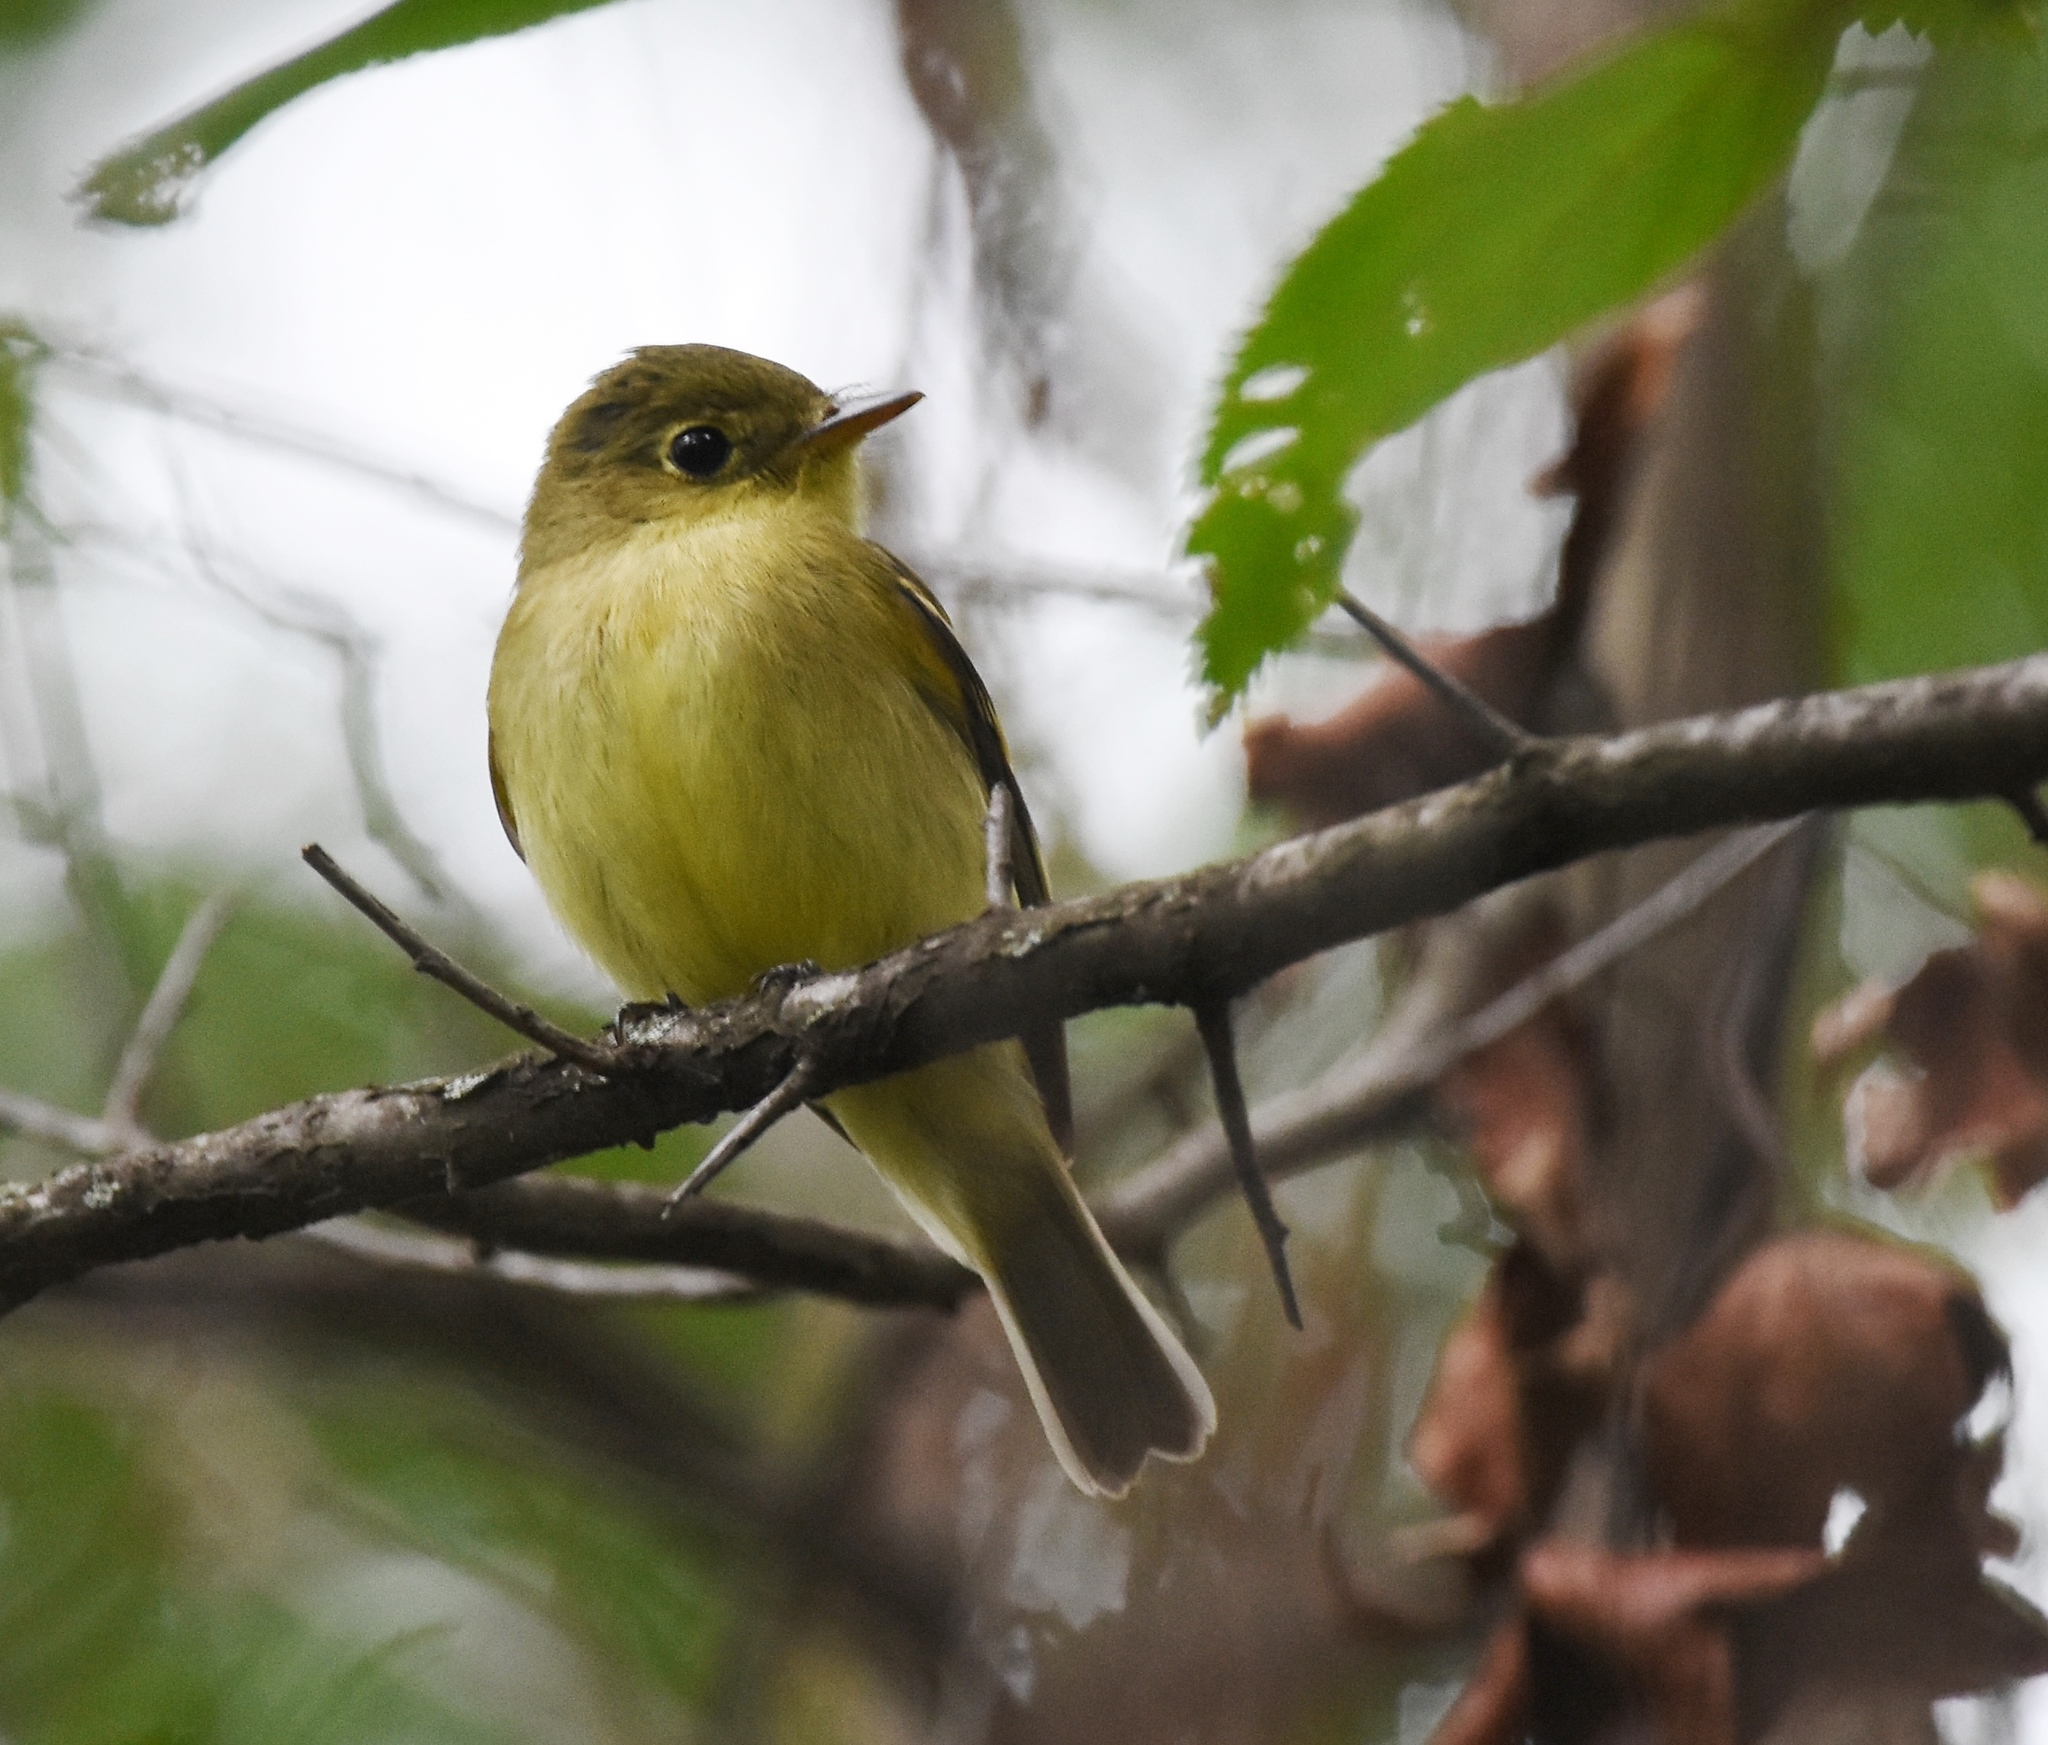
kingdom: Animalia
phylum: Chordata
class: Aves
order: Passeriformes
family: Tyrannidae
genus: Empidonax
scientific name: Empidonax flaviventris
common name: Yellow-bellied flycatcher
